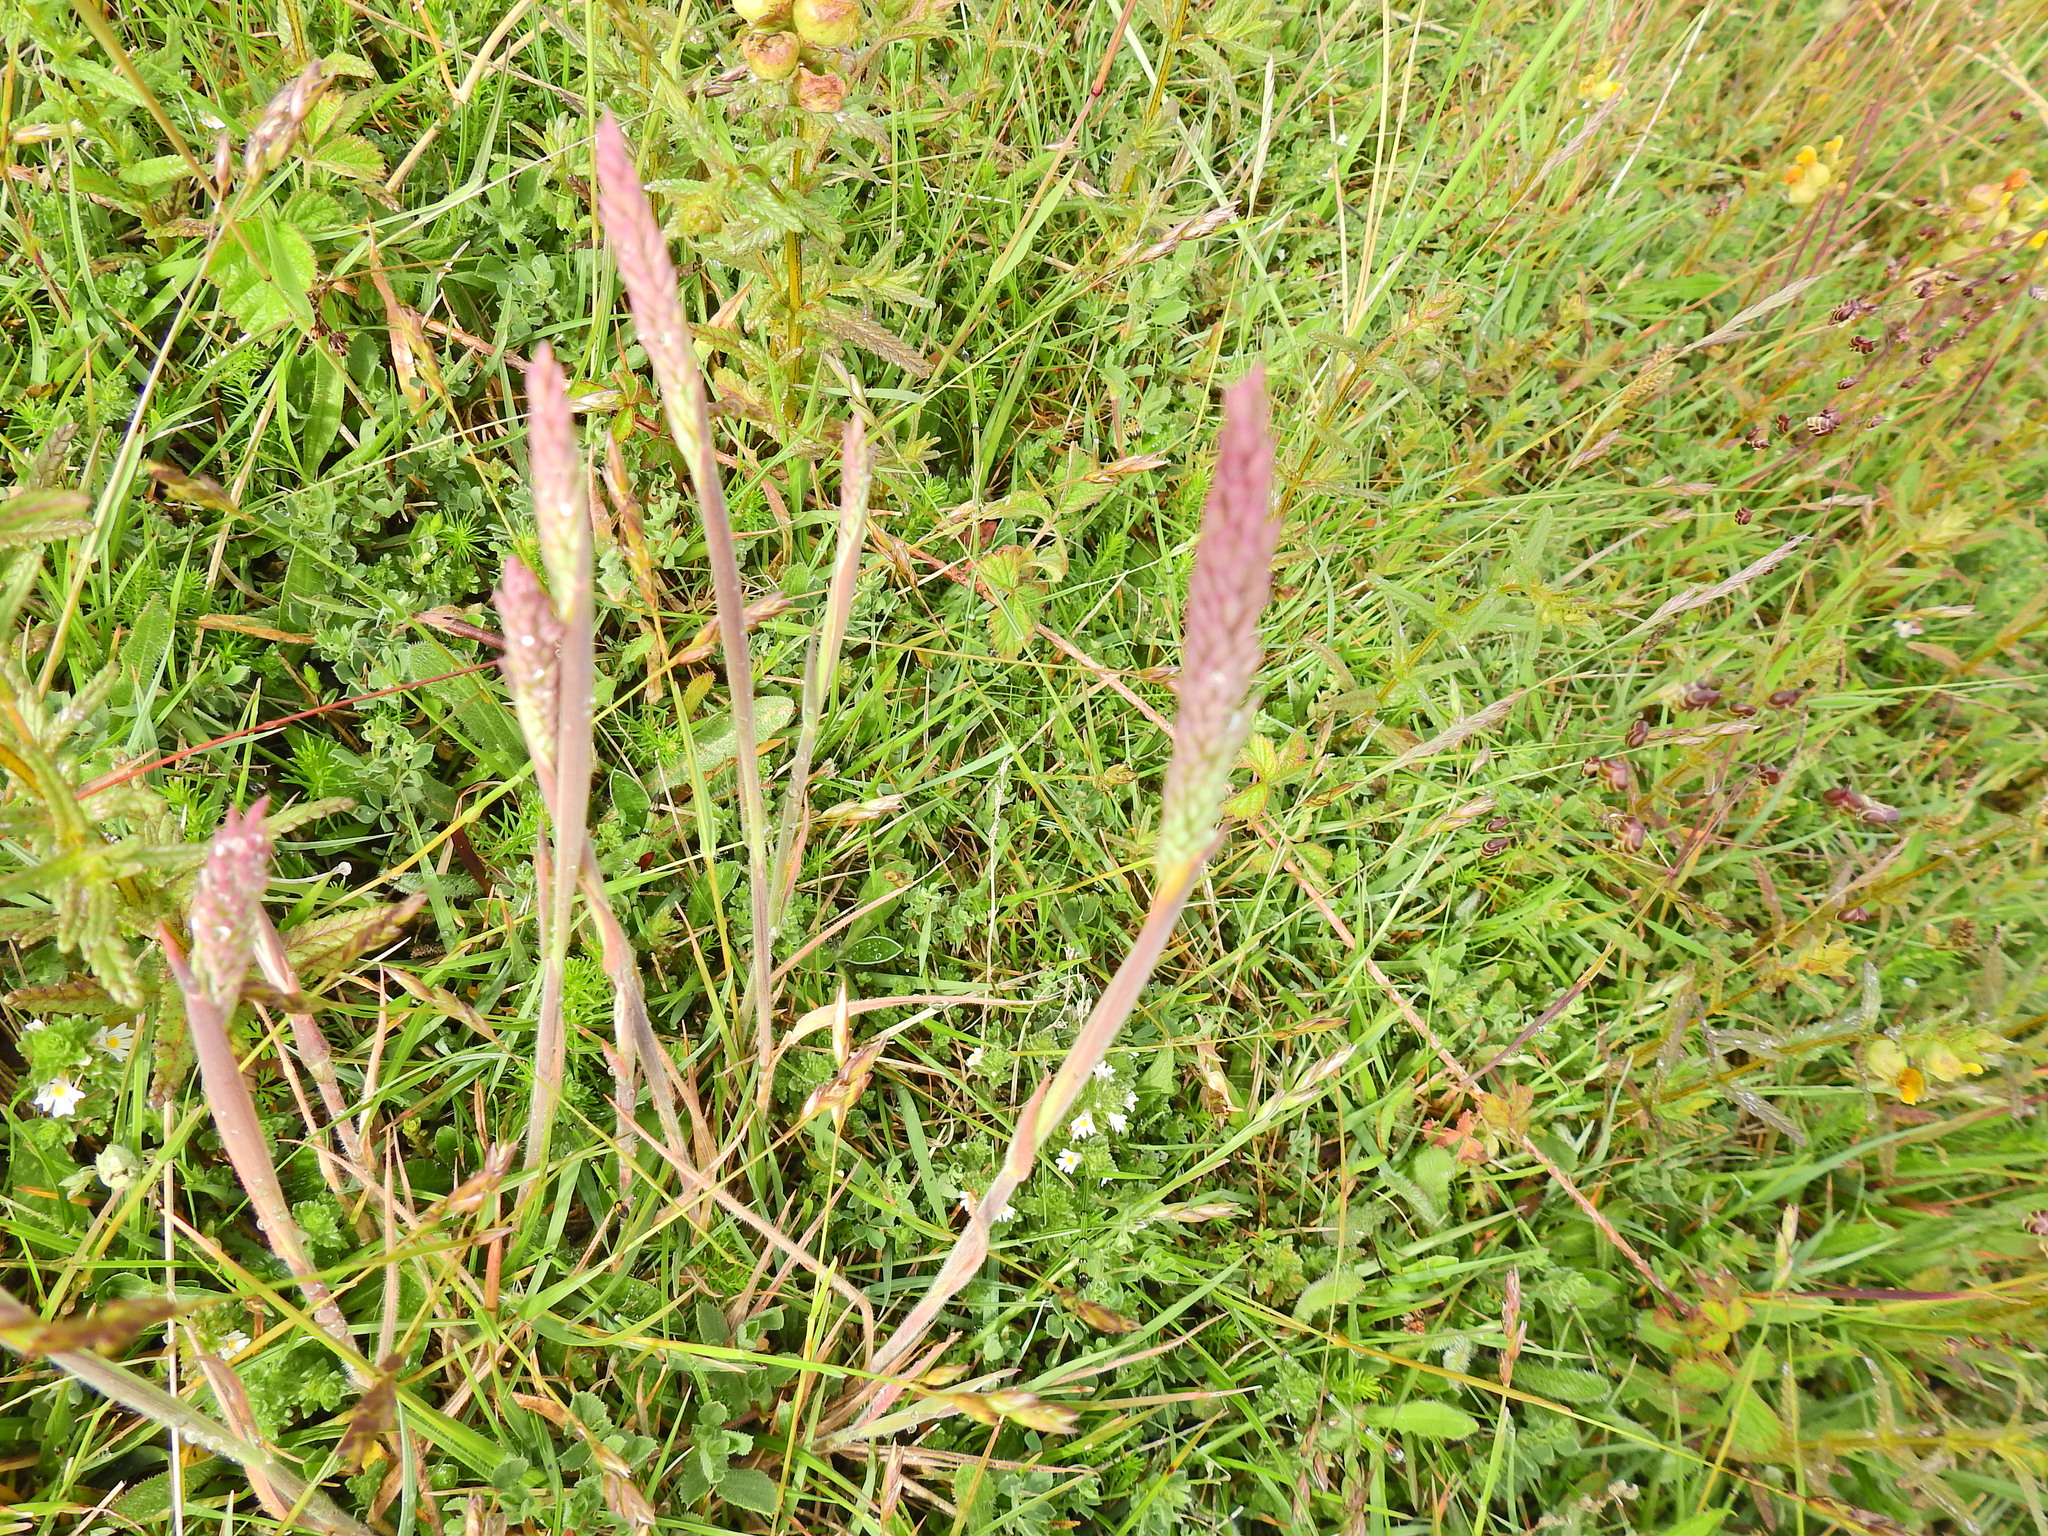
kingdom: Plantae
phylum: Tracheophyta
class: Liliopsida
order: Poales
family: Poaceae
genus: Holcus
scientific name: Holcus lanatus
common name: Yorkshire-fog
